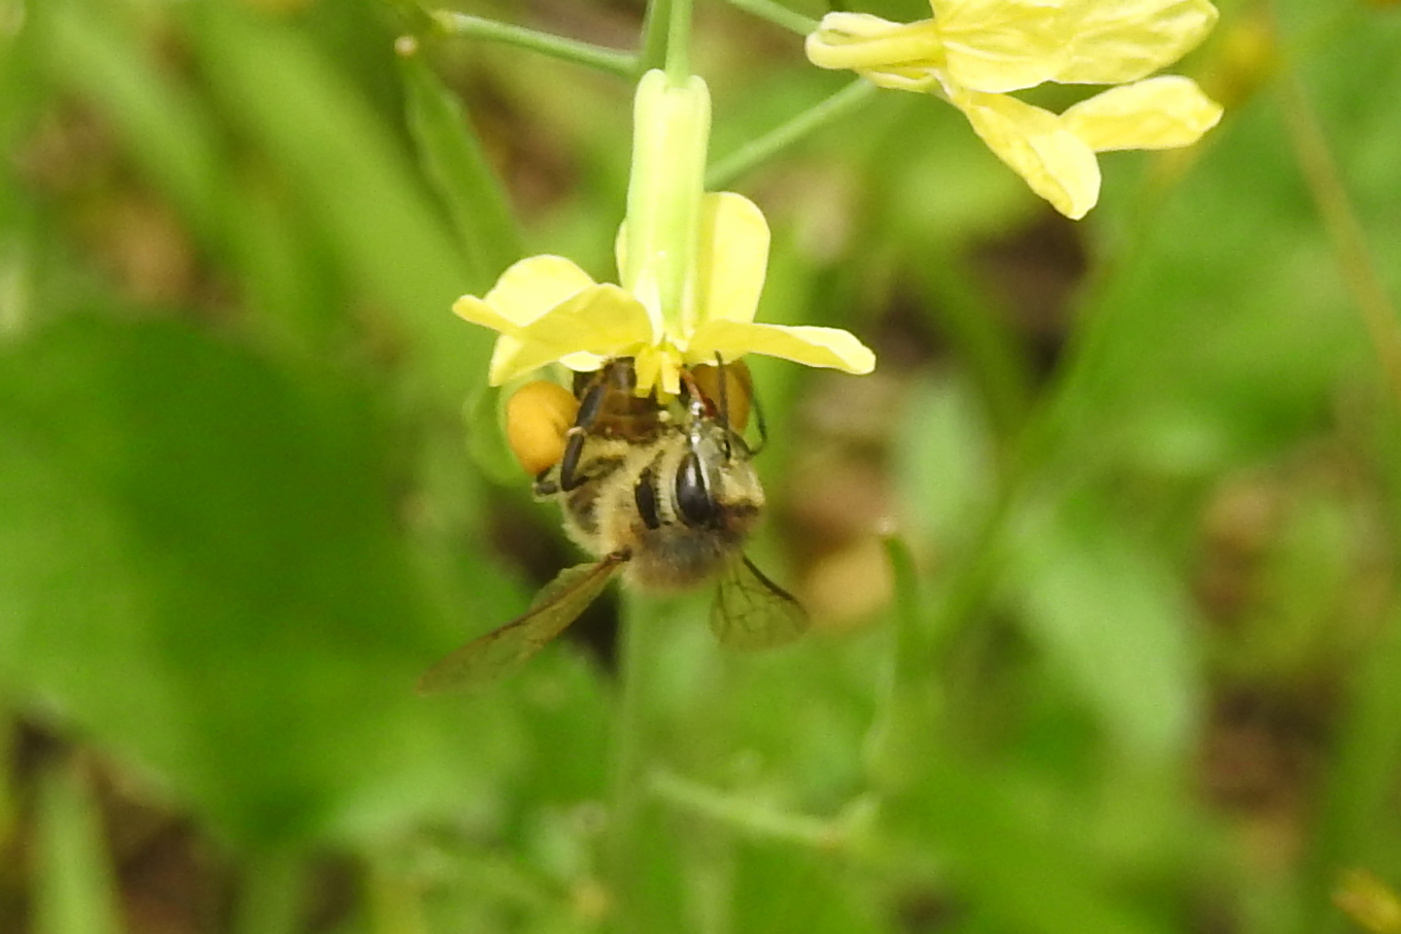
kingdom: Animalia
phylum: Arthropoda
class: Insecta
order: Hymenoptera
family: Apidae
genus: Apis
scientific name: Apis mellifera
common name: Honey bee
